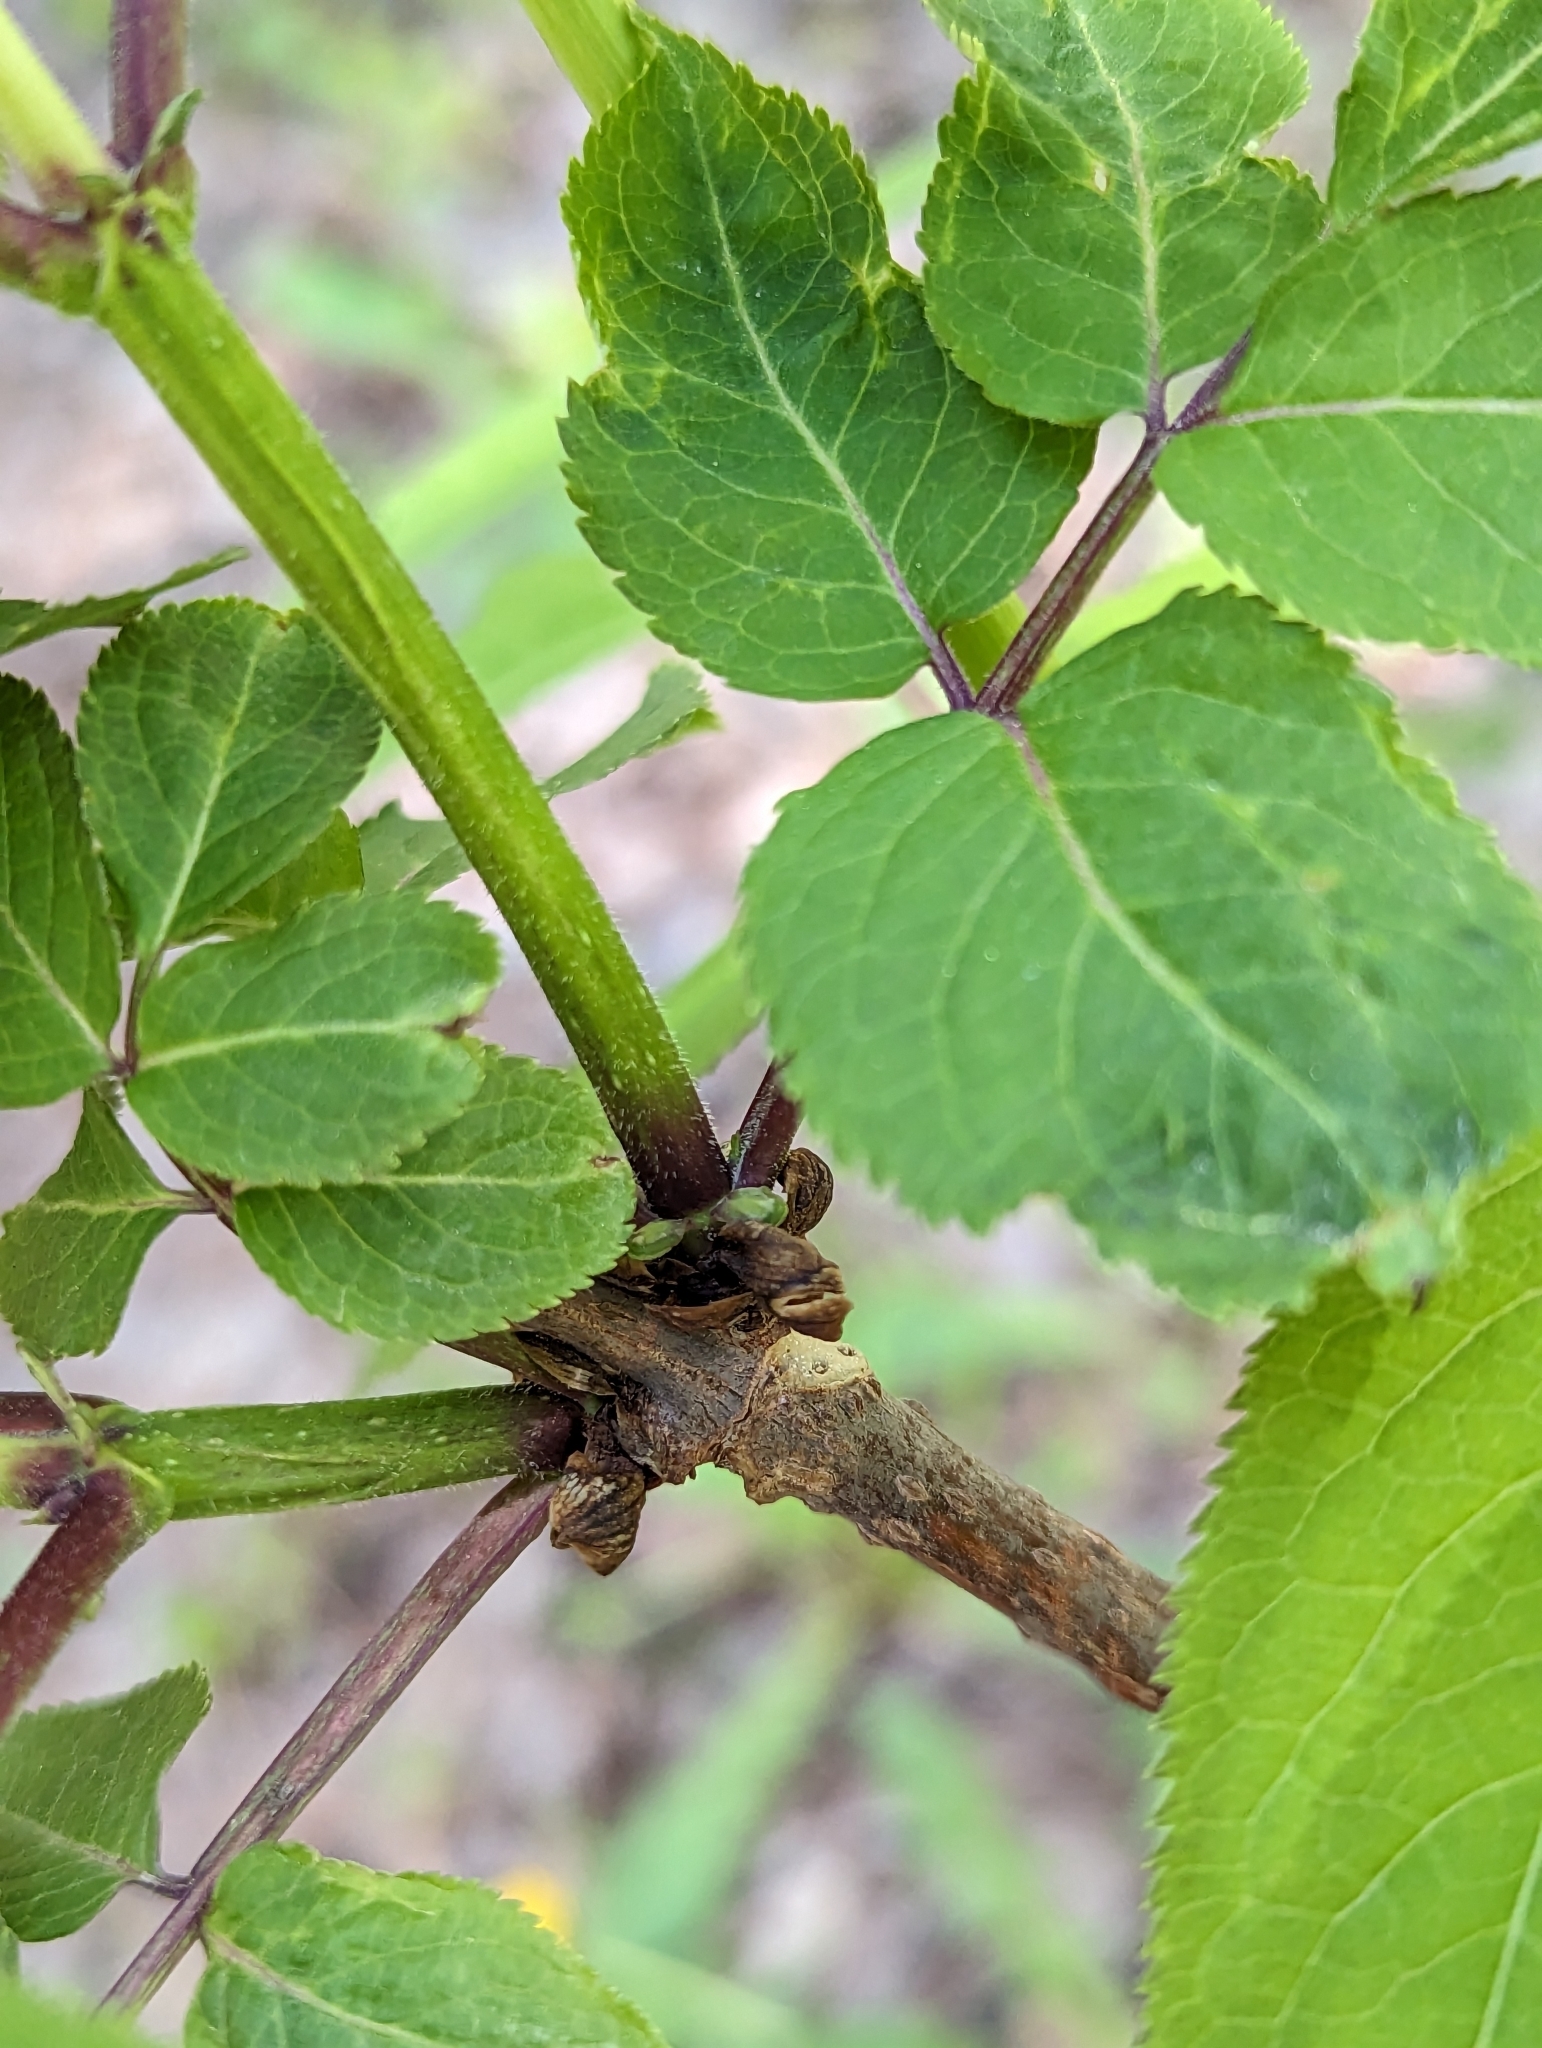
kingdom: Plantae
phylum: Tracheophyta
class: Magnoliopsida
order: Dipsacales
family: Viburnaceae
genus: Sambucus
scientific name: Sambucus racemosa
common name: Red-berried elder
